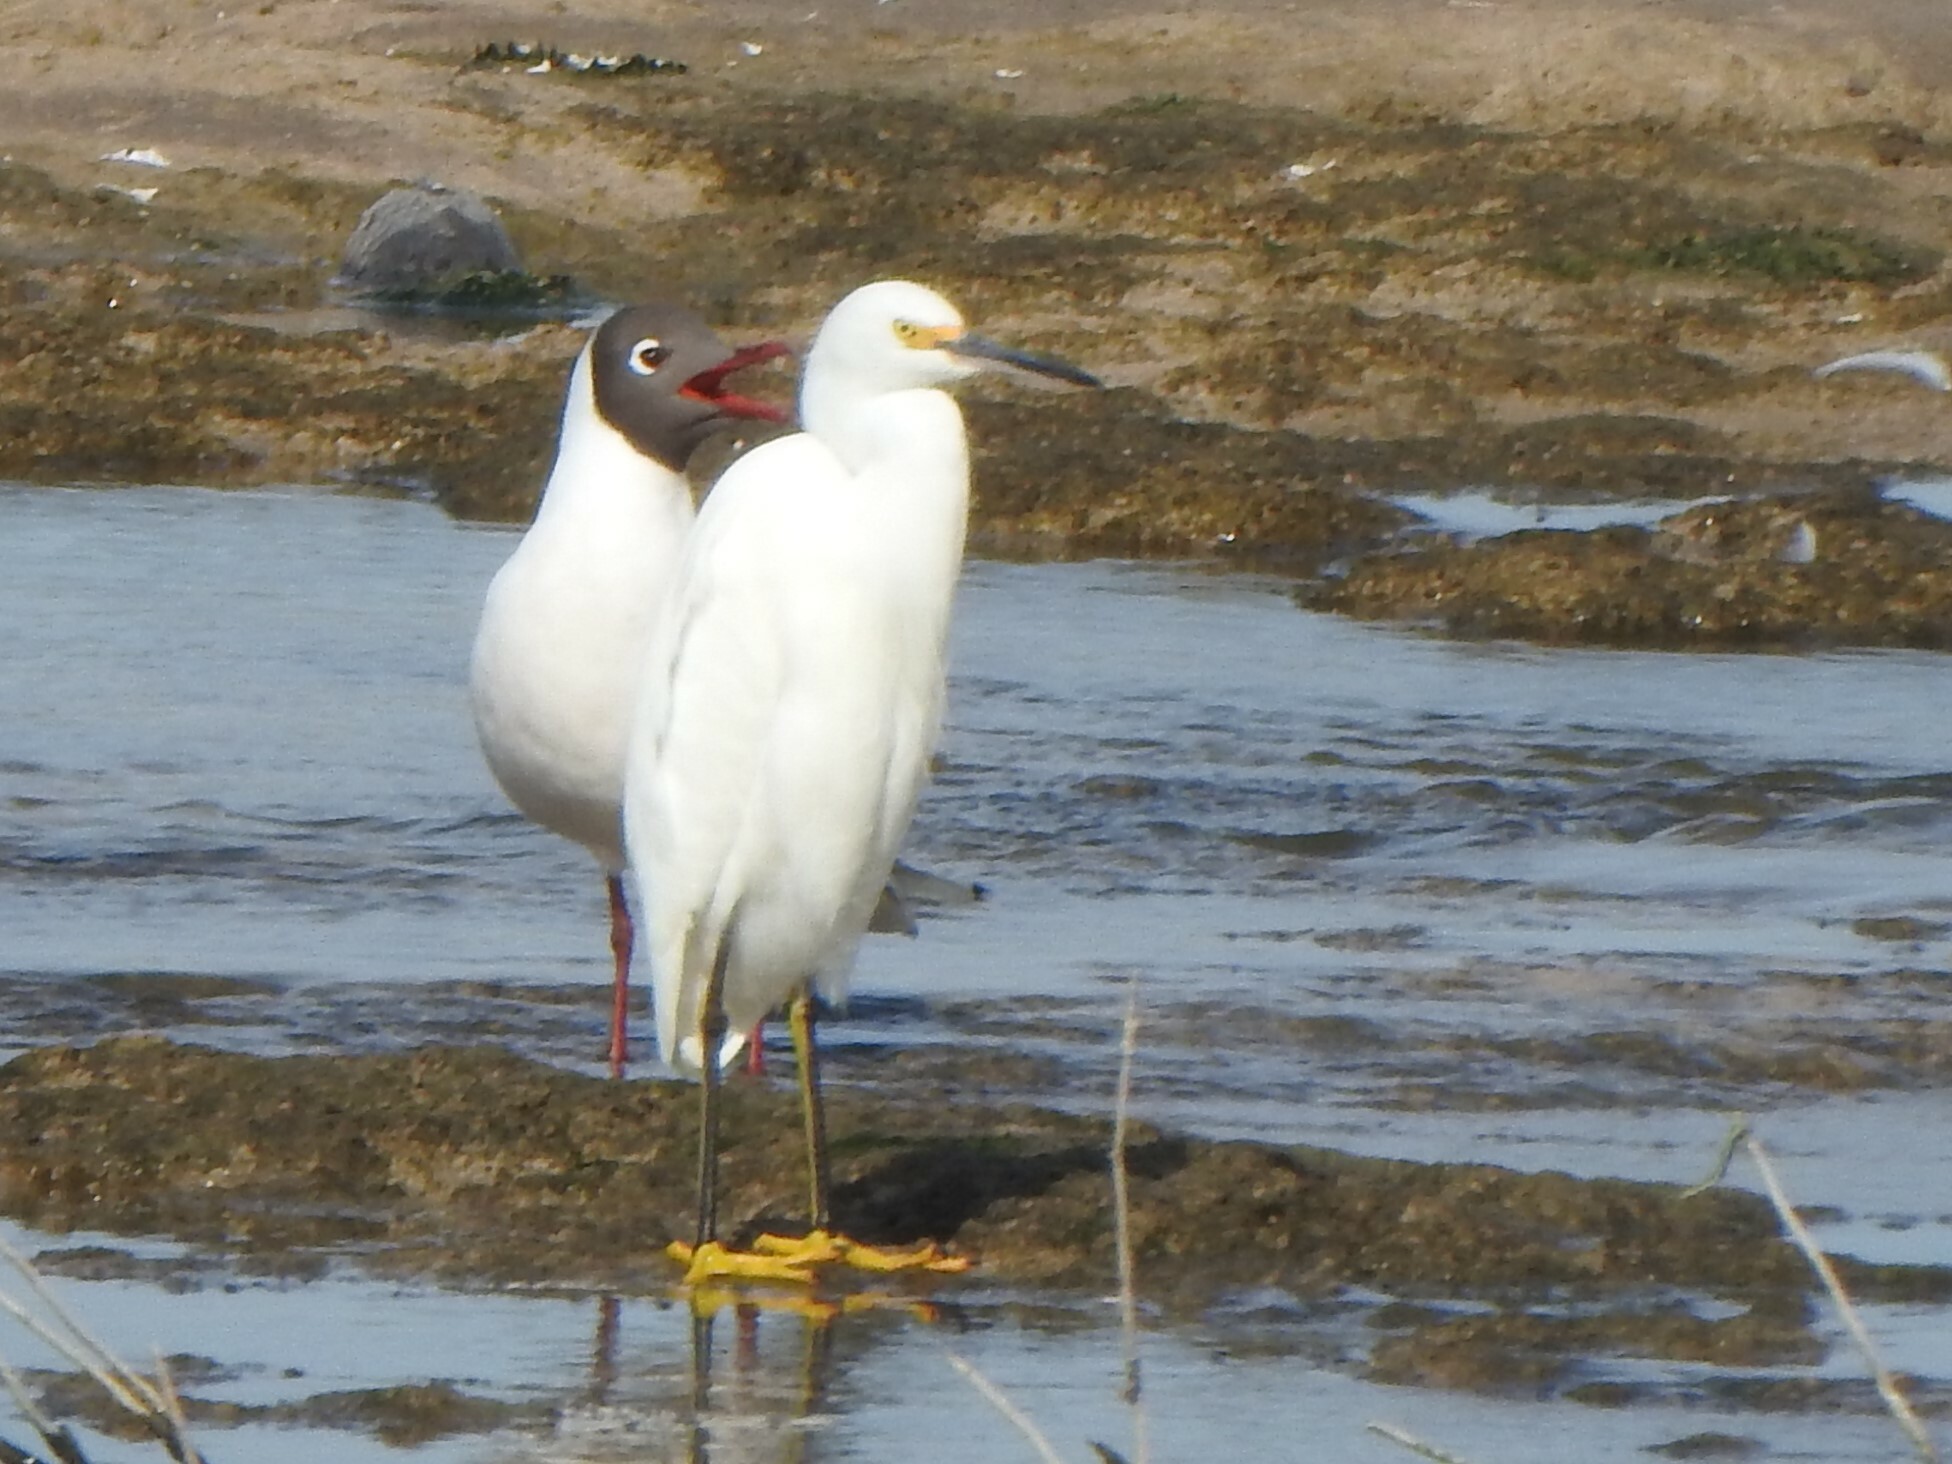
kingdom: Animalia
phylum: Chordata
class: Aves
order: Charadriiformes
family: Laridae
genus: Chroicocephalus
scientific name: Chroicocephalus maculipennis
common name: Brown-hooded gull
